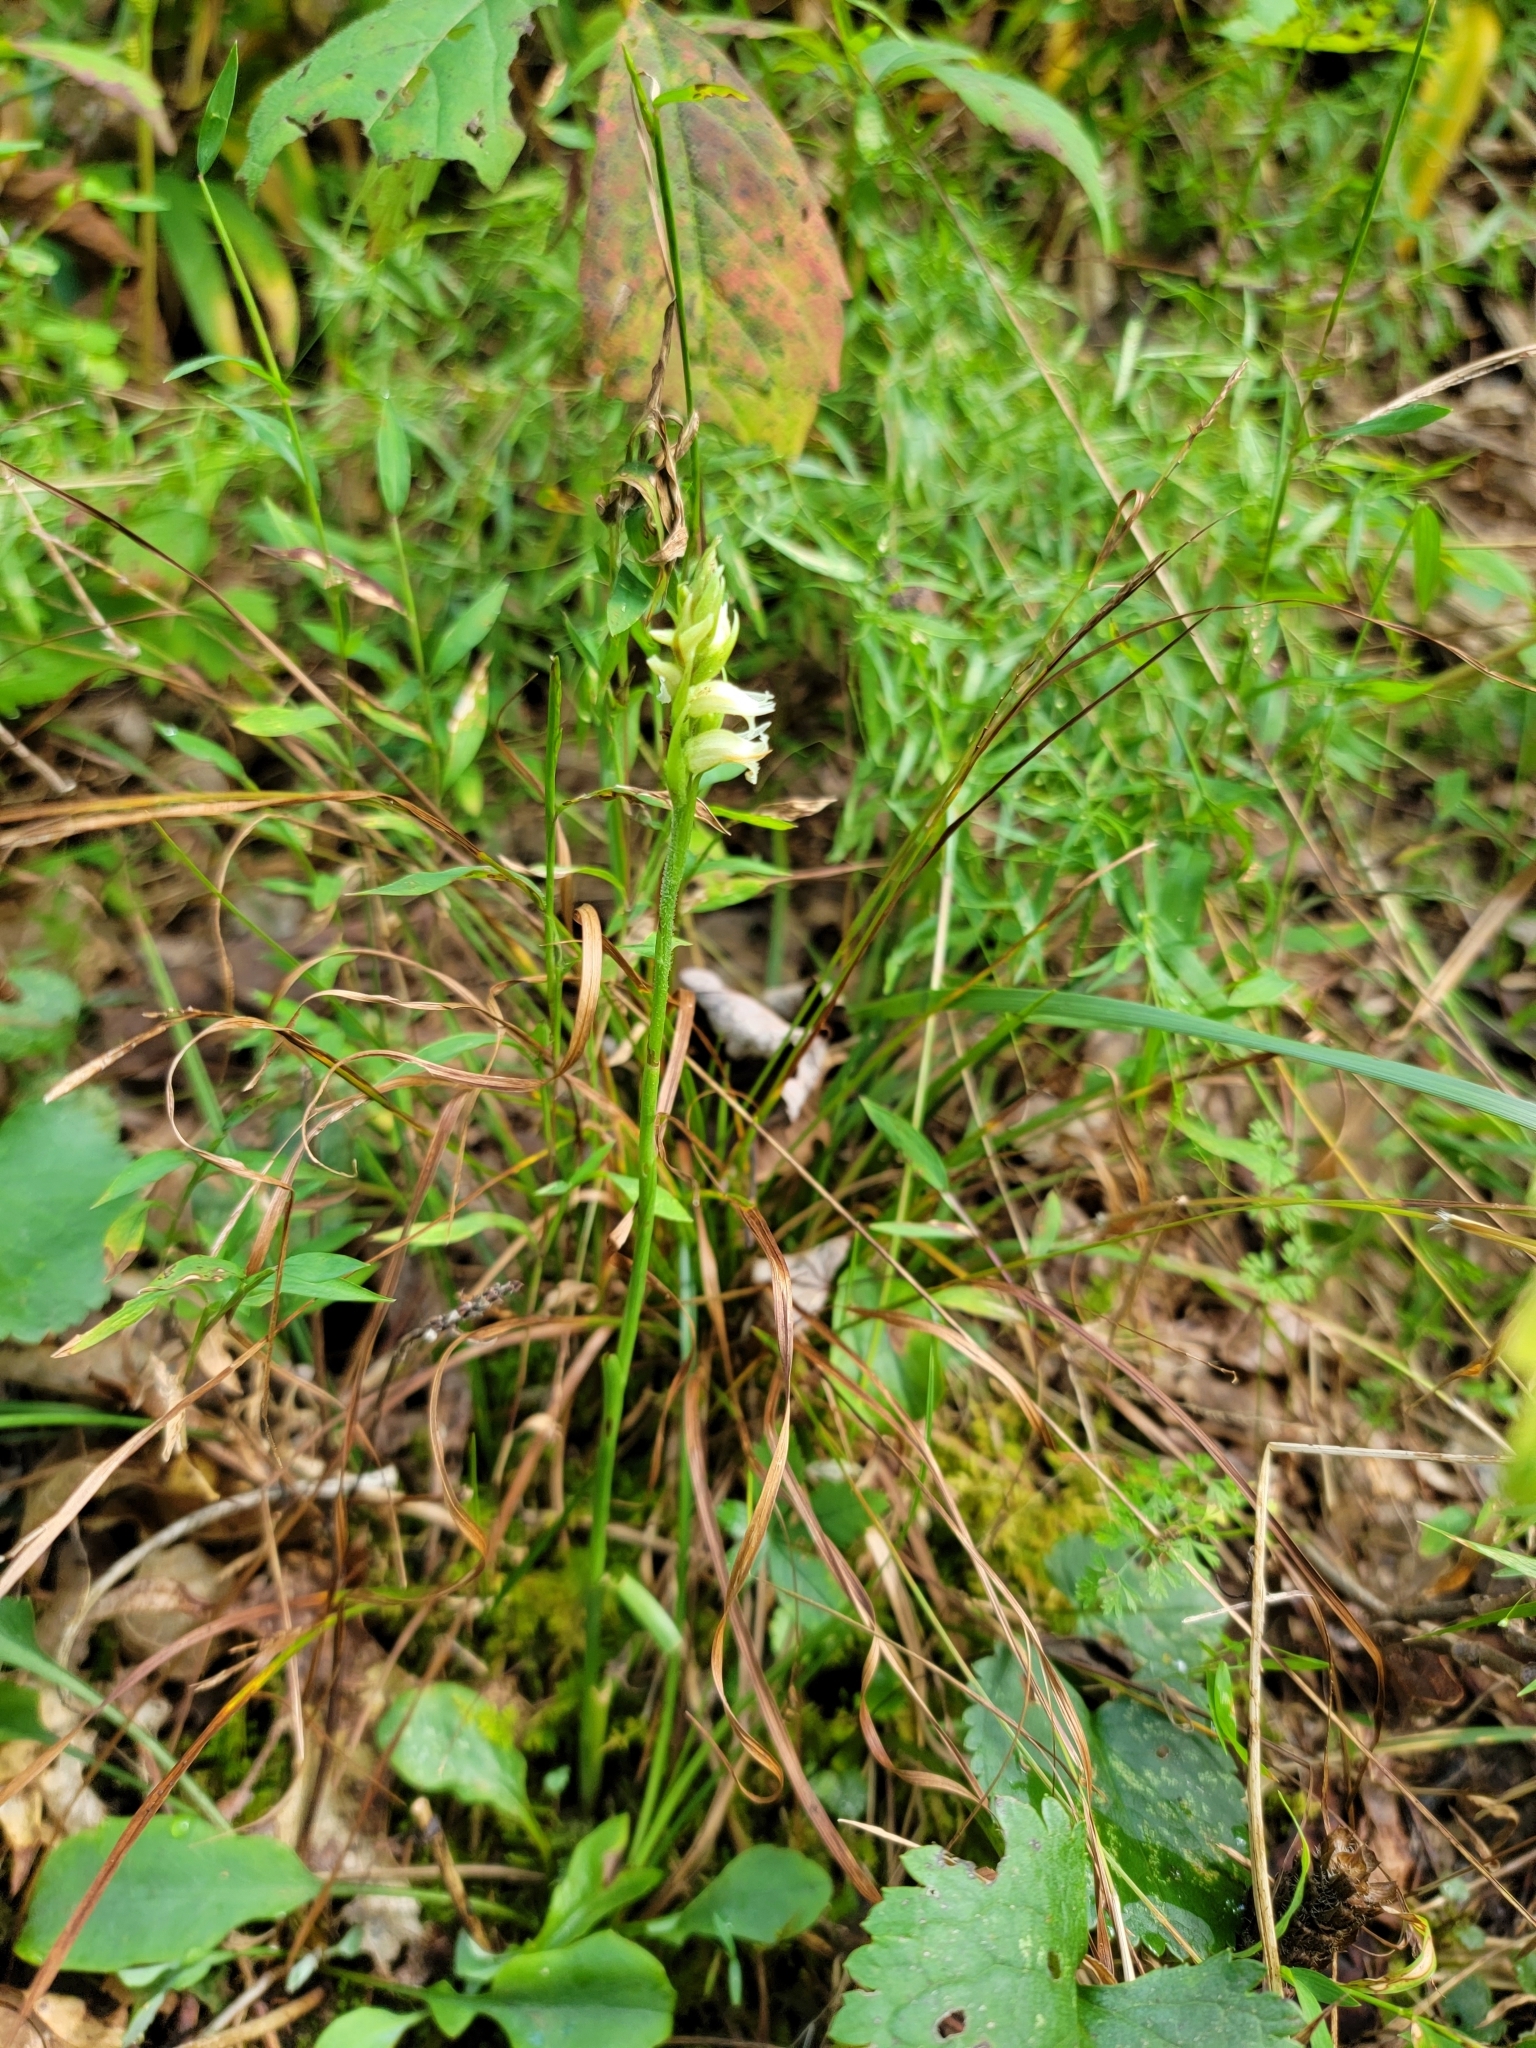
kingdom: Plantae
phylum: Tracheophyta
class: Liliopsida
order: Asparagales
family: Orchidaceae
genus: Spiranthes
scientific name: Spiranthes ochroleuca
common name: Yellow ladies'-tresses
